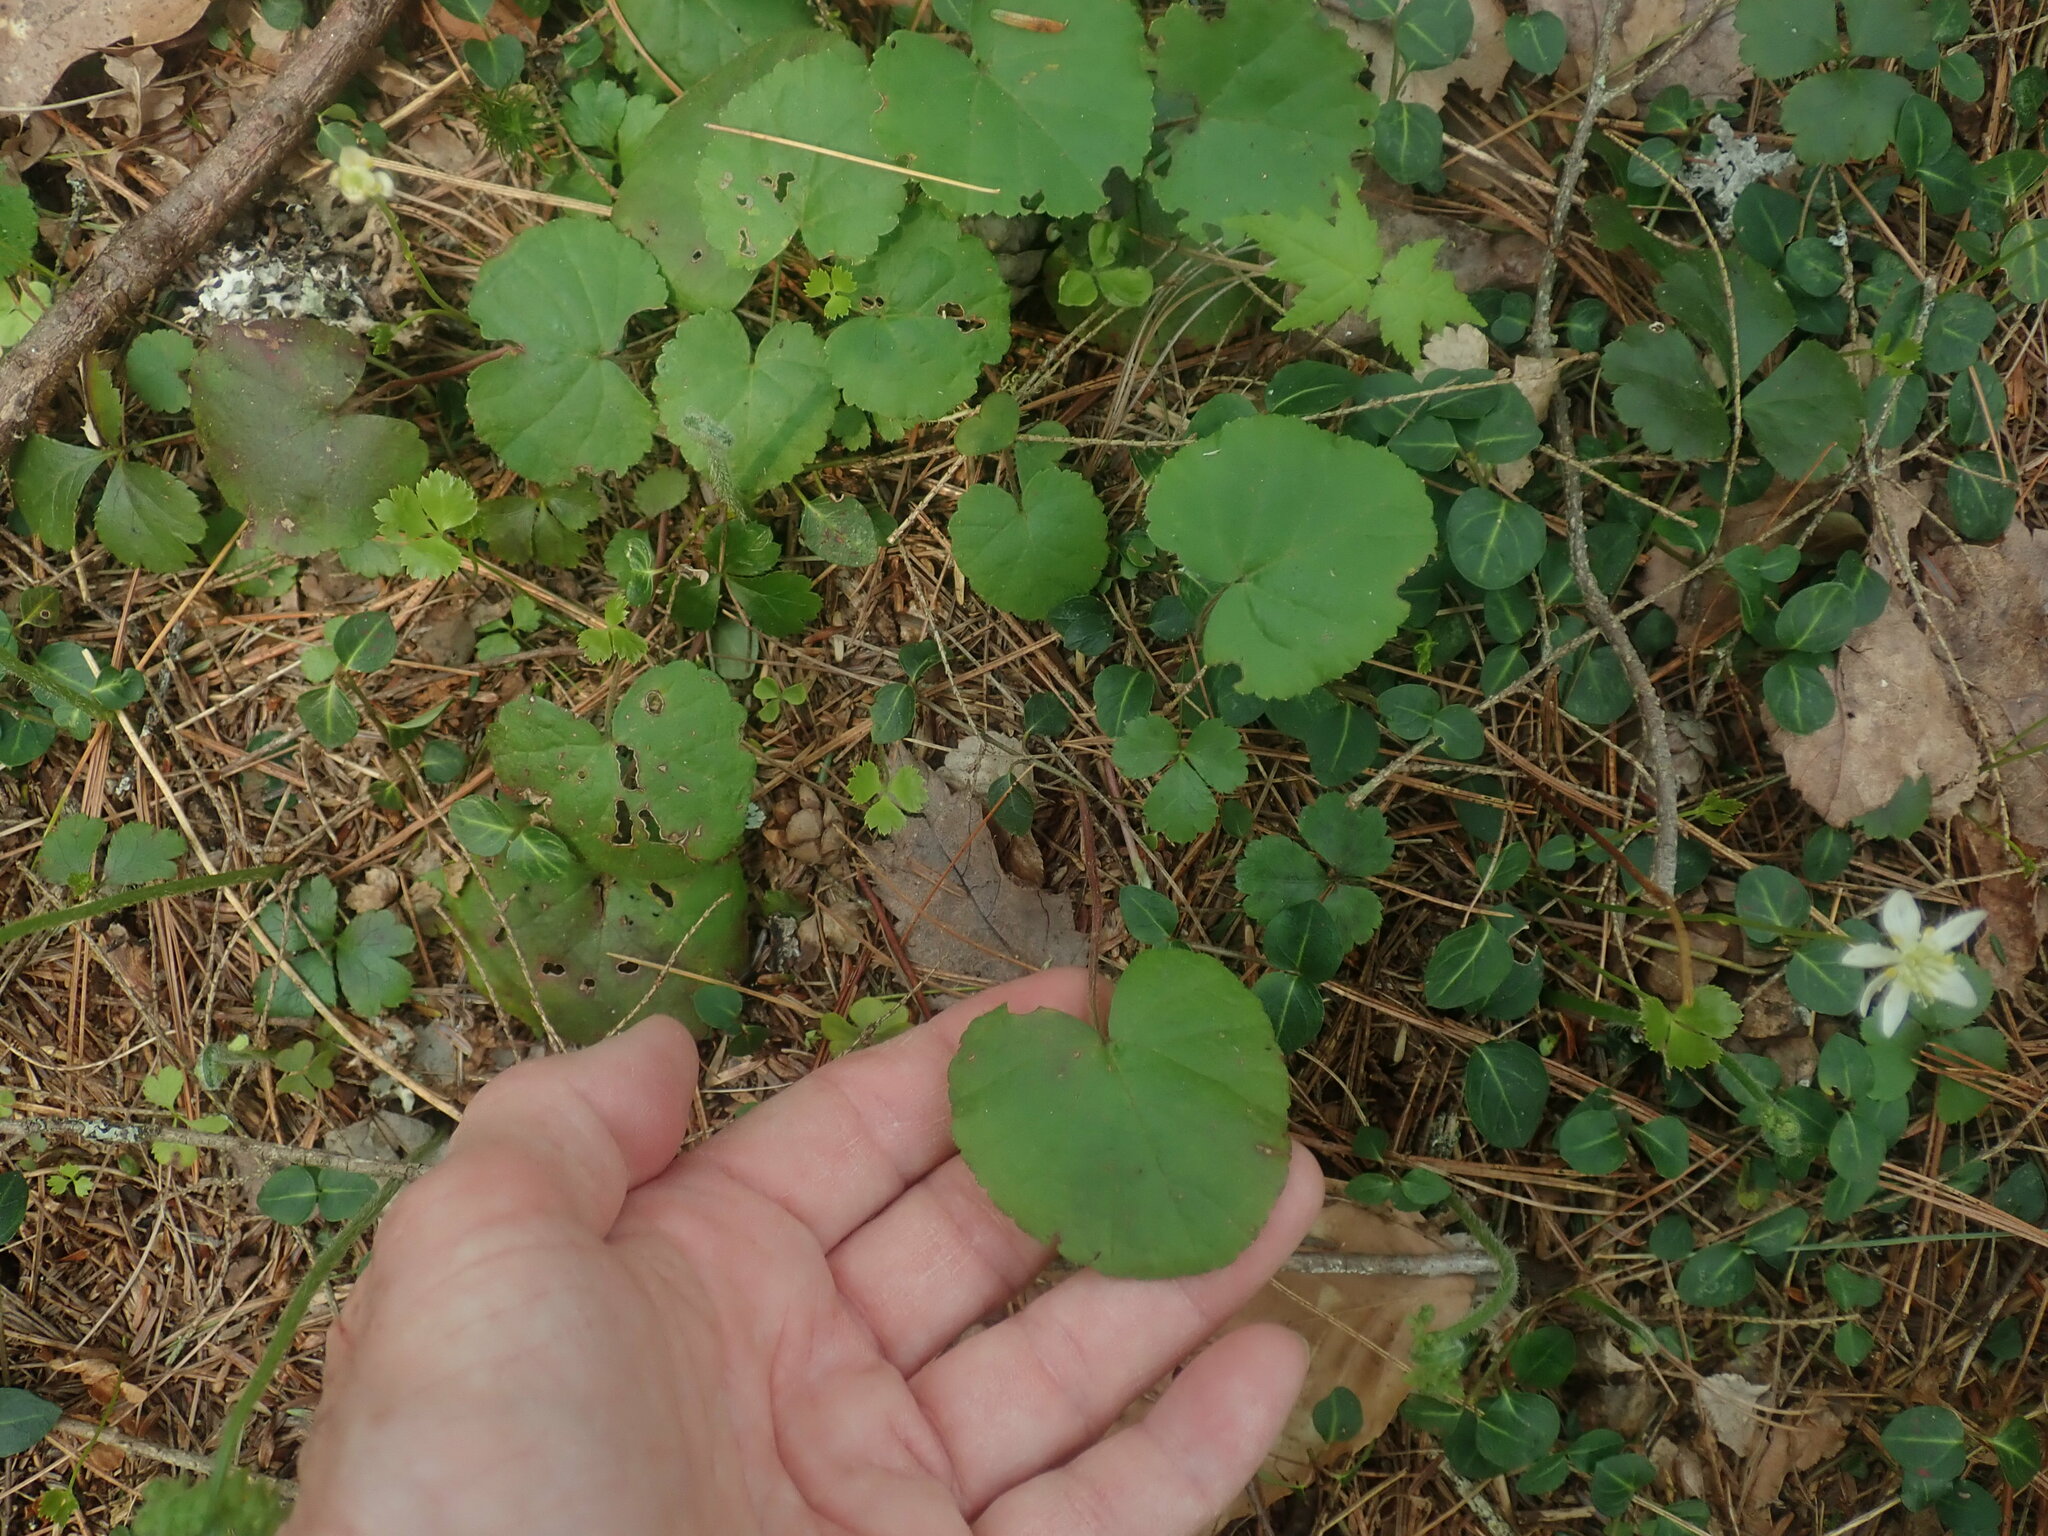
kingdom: Plantae
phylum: Tracheophyta
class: Magnoliopsida
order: Rosales
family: Rosaceae
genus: Dalibarda
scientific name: Dalibarda repens
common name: Dewdrop
